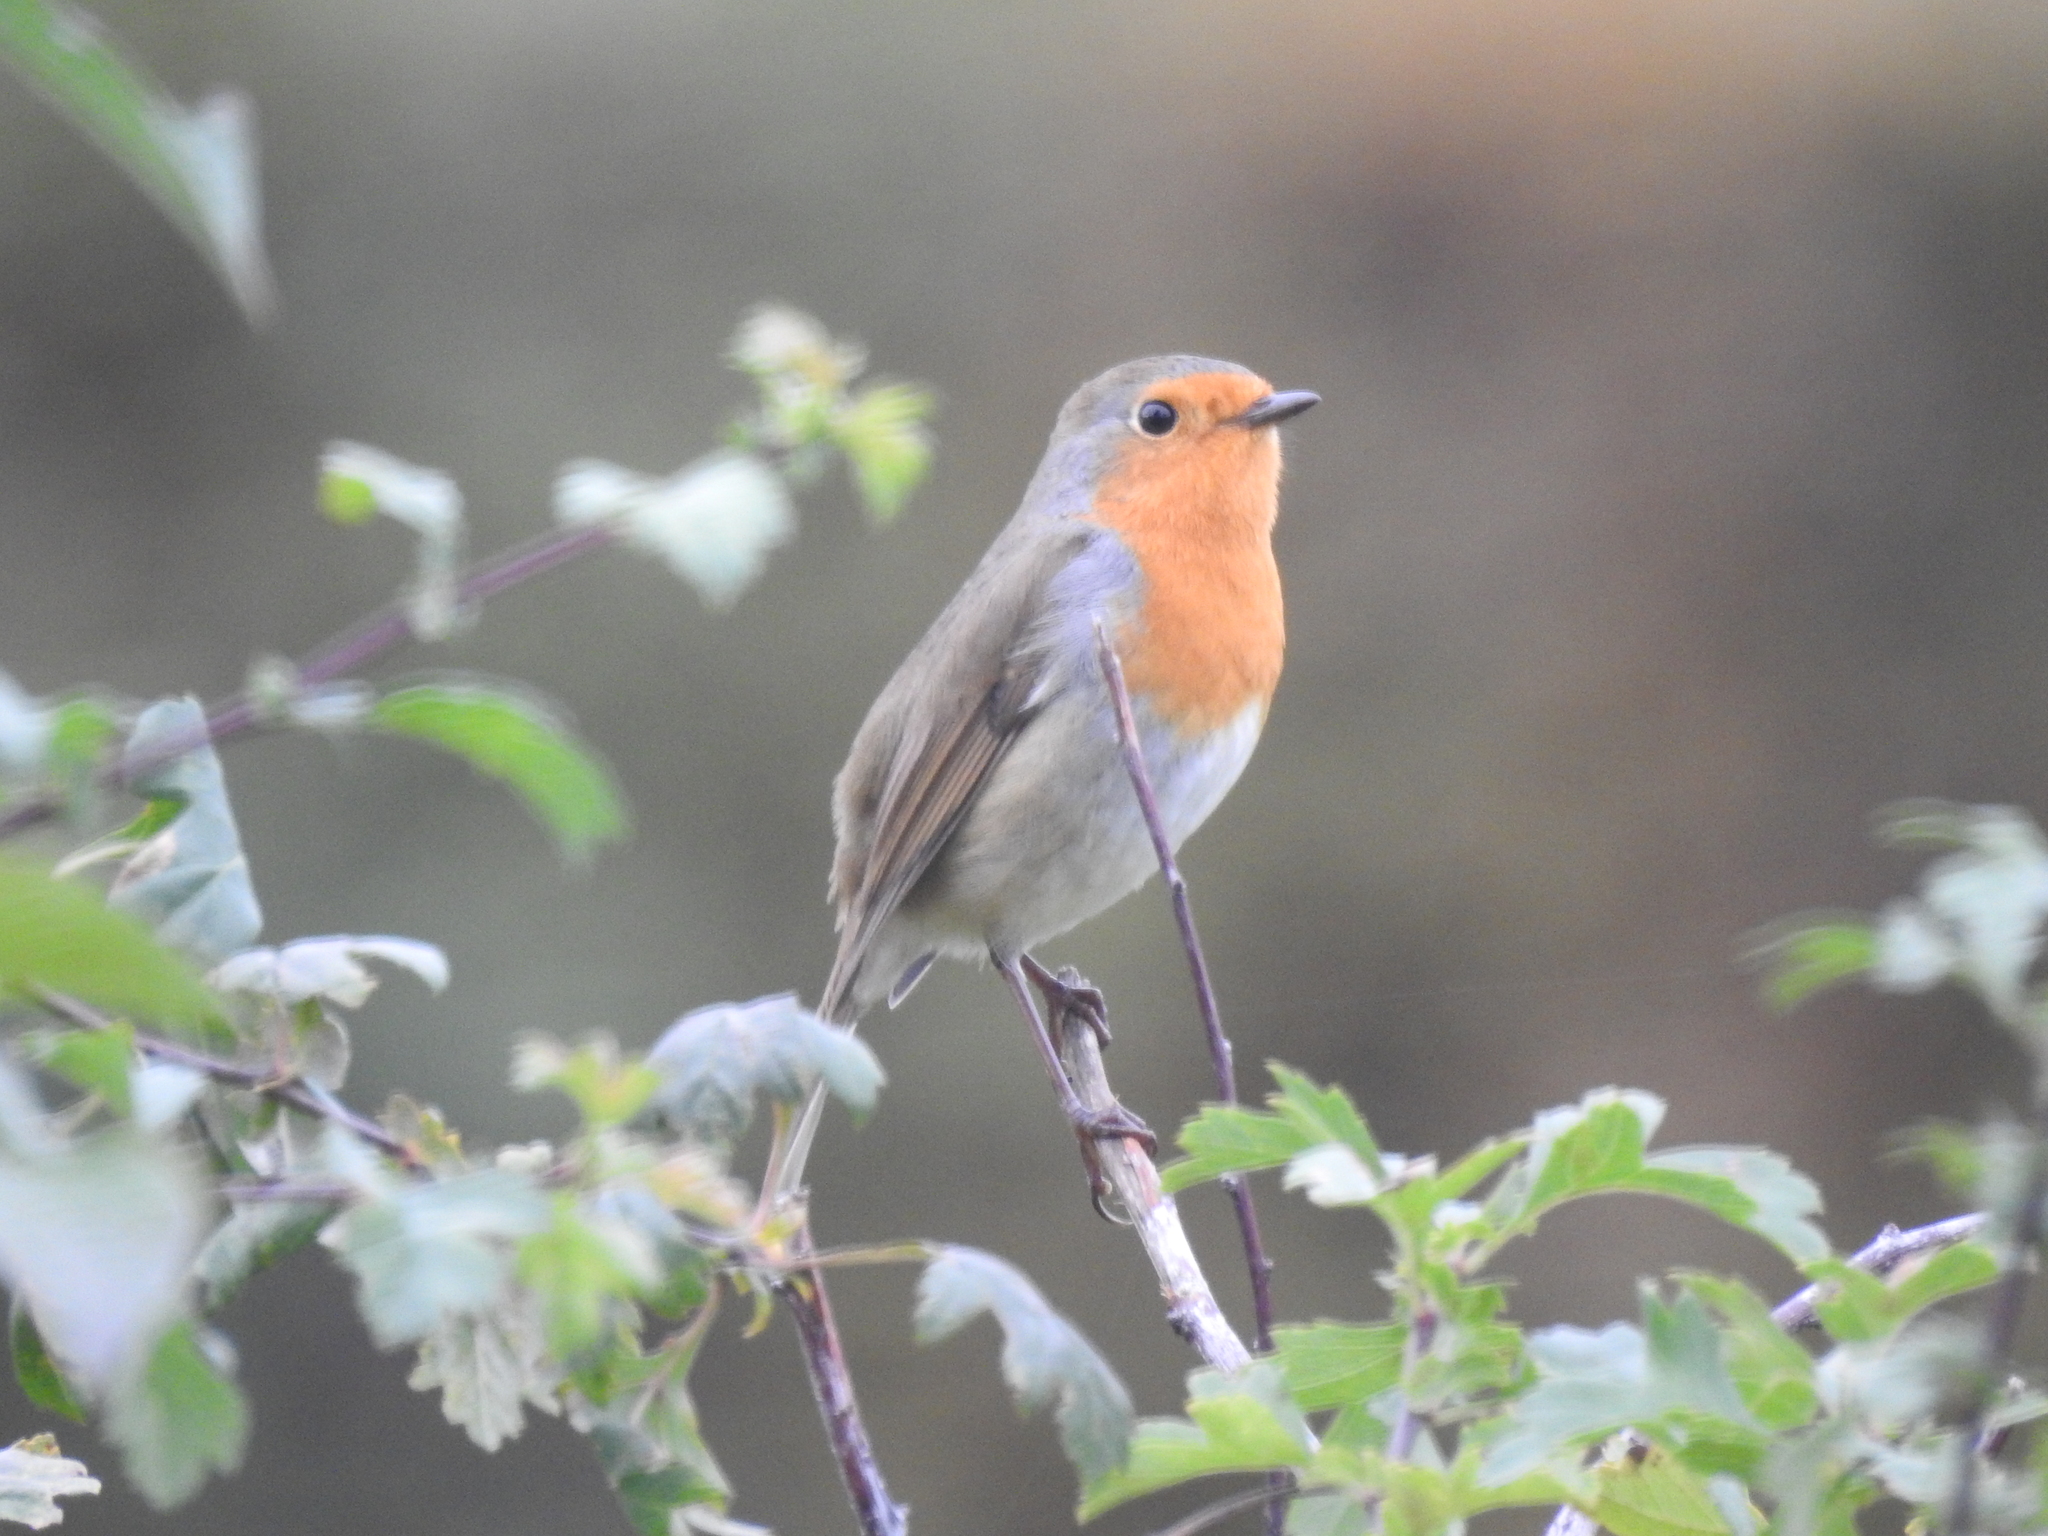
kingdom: Animalia
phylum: Chordata
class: Aves
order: Passeriformes
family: Muscicapidae
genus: Erithacus
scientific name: Erithacus rubecula
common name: European robin
